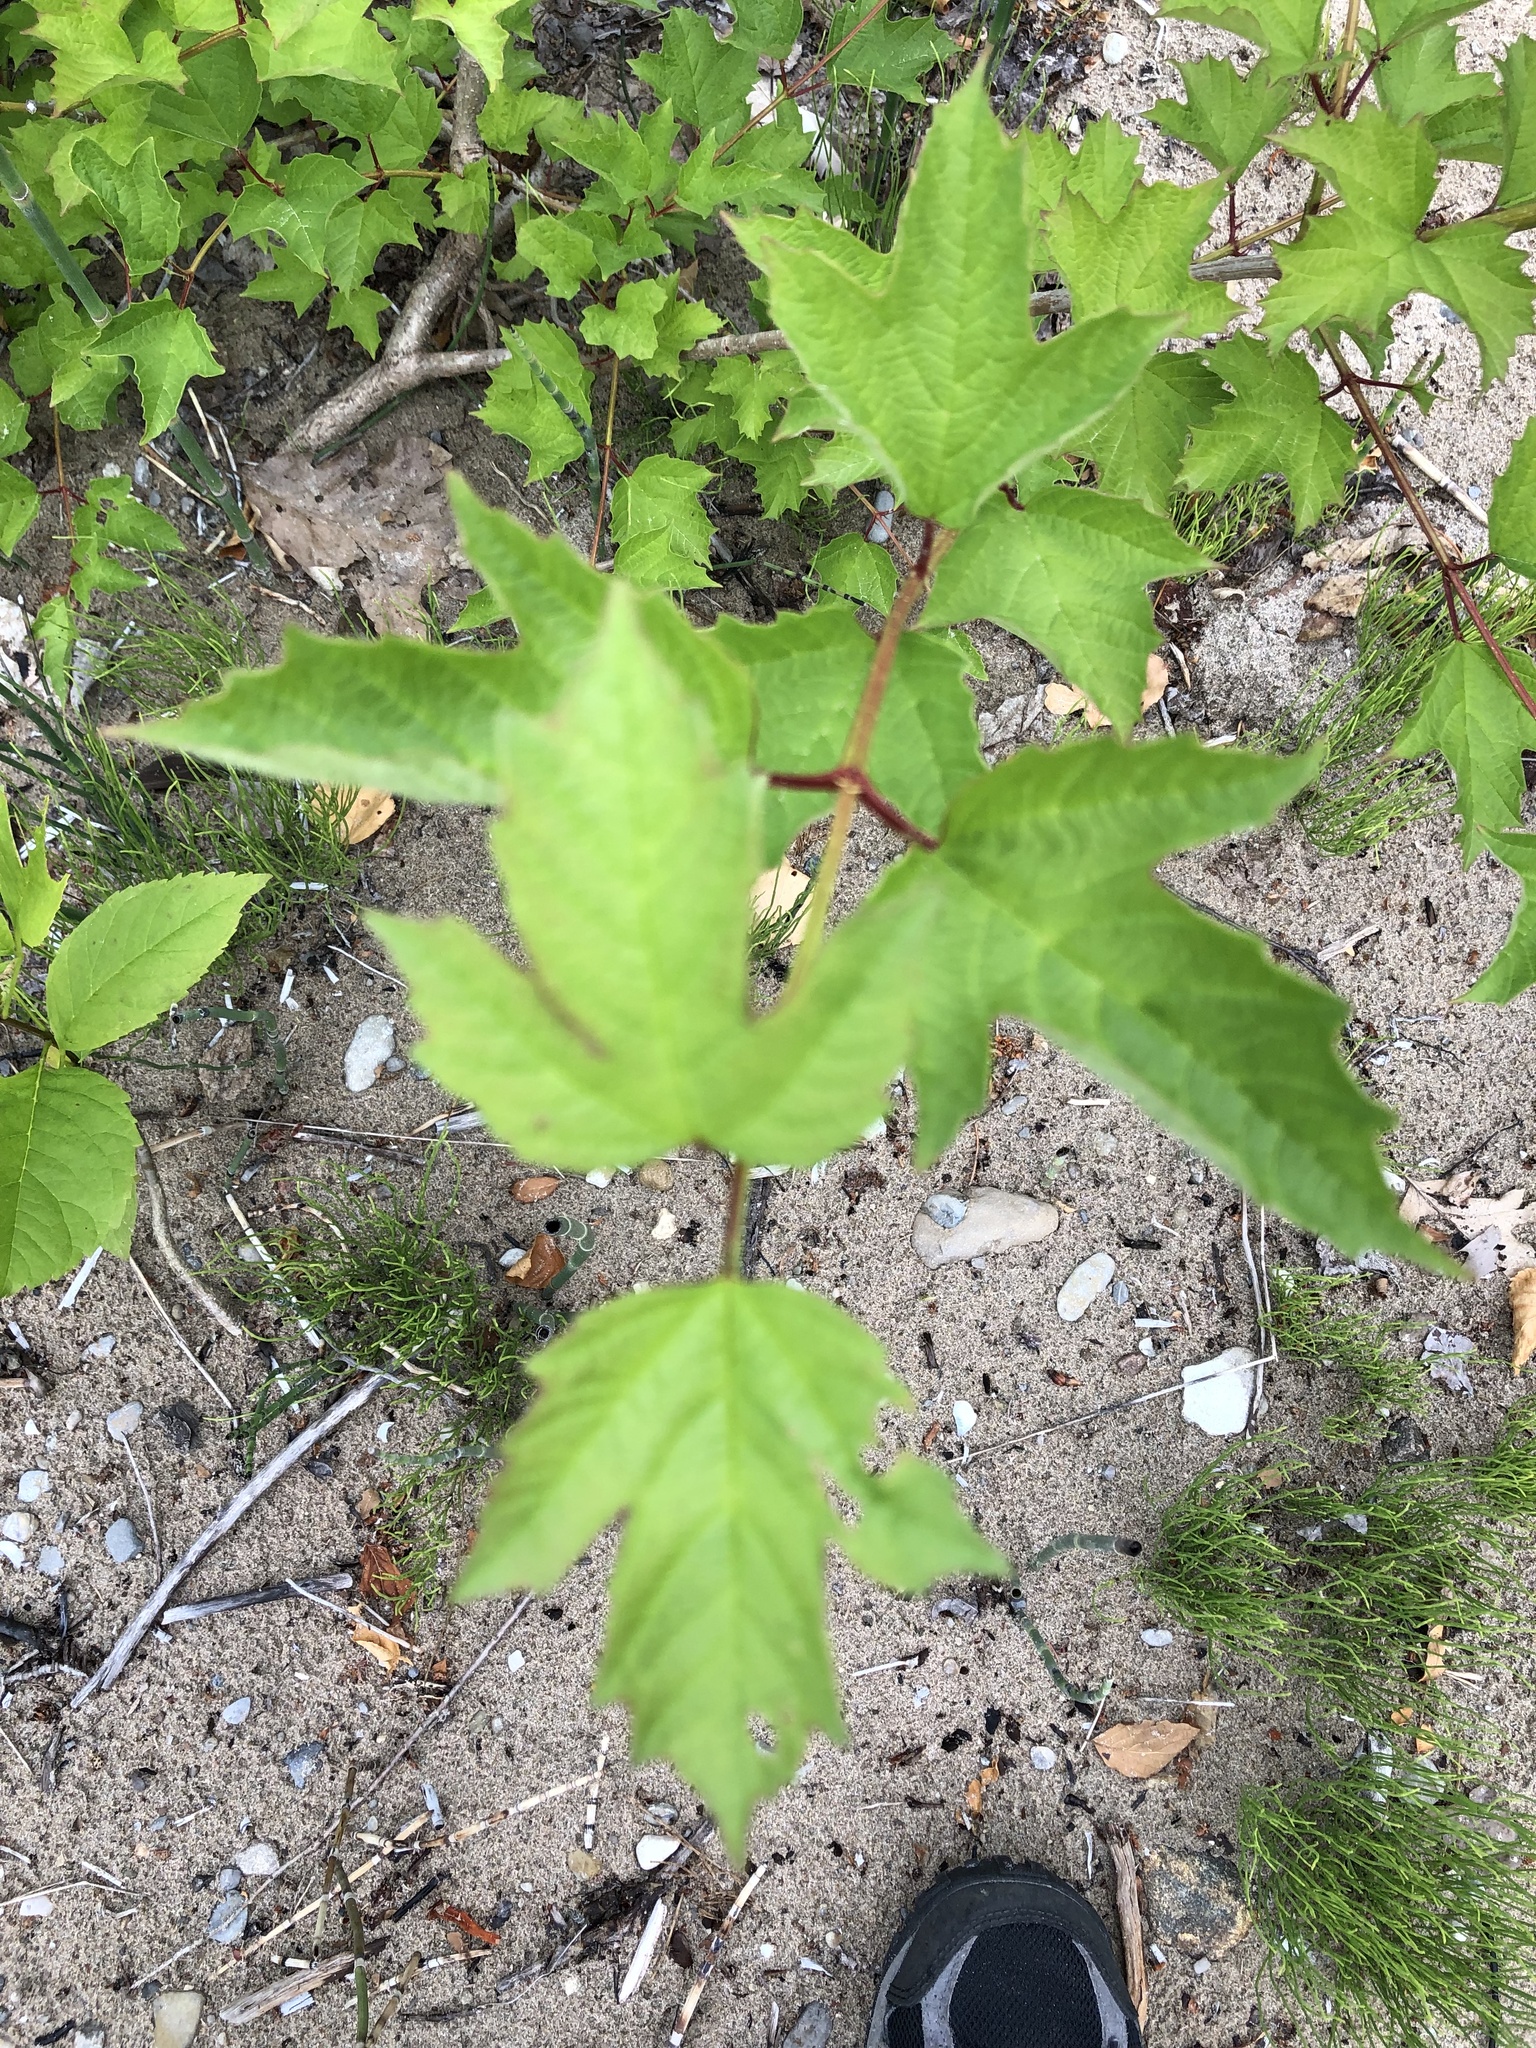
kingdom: Plantae
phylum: Tracheophyta
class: Magnoliopsida
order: Dipsacales
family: Viburnaceae
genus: Viburnum
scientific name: Viburnum opulus
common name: Guelder-rose
